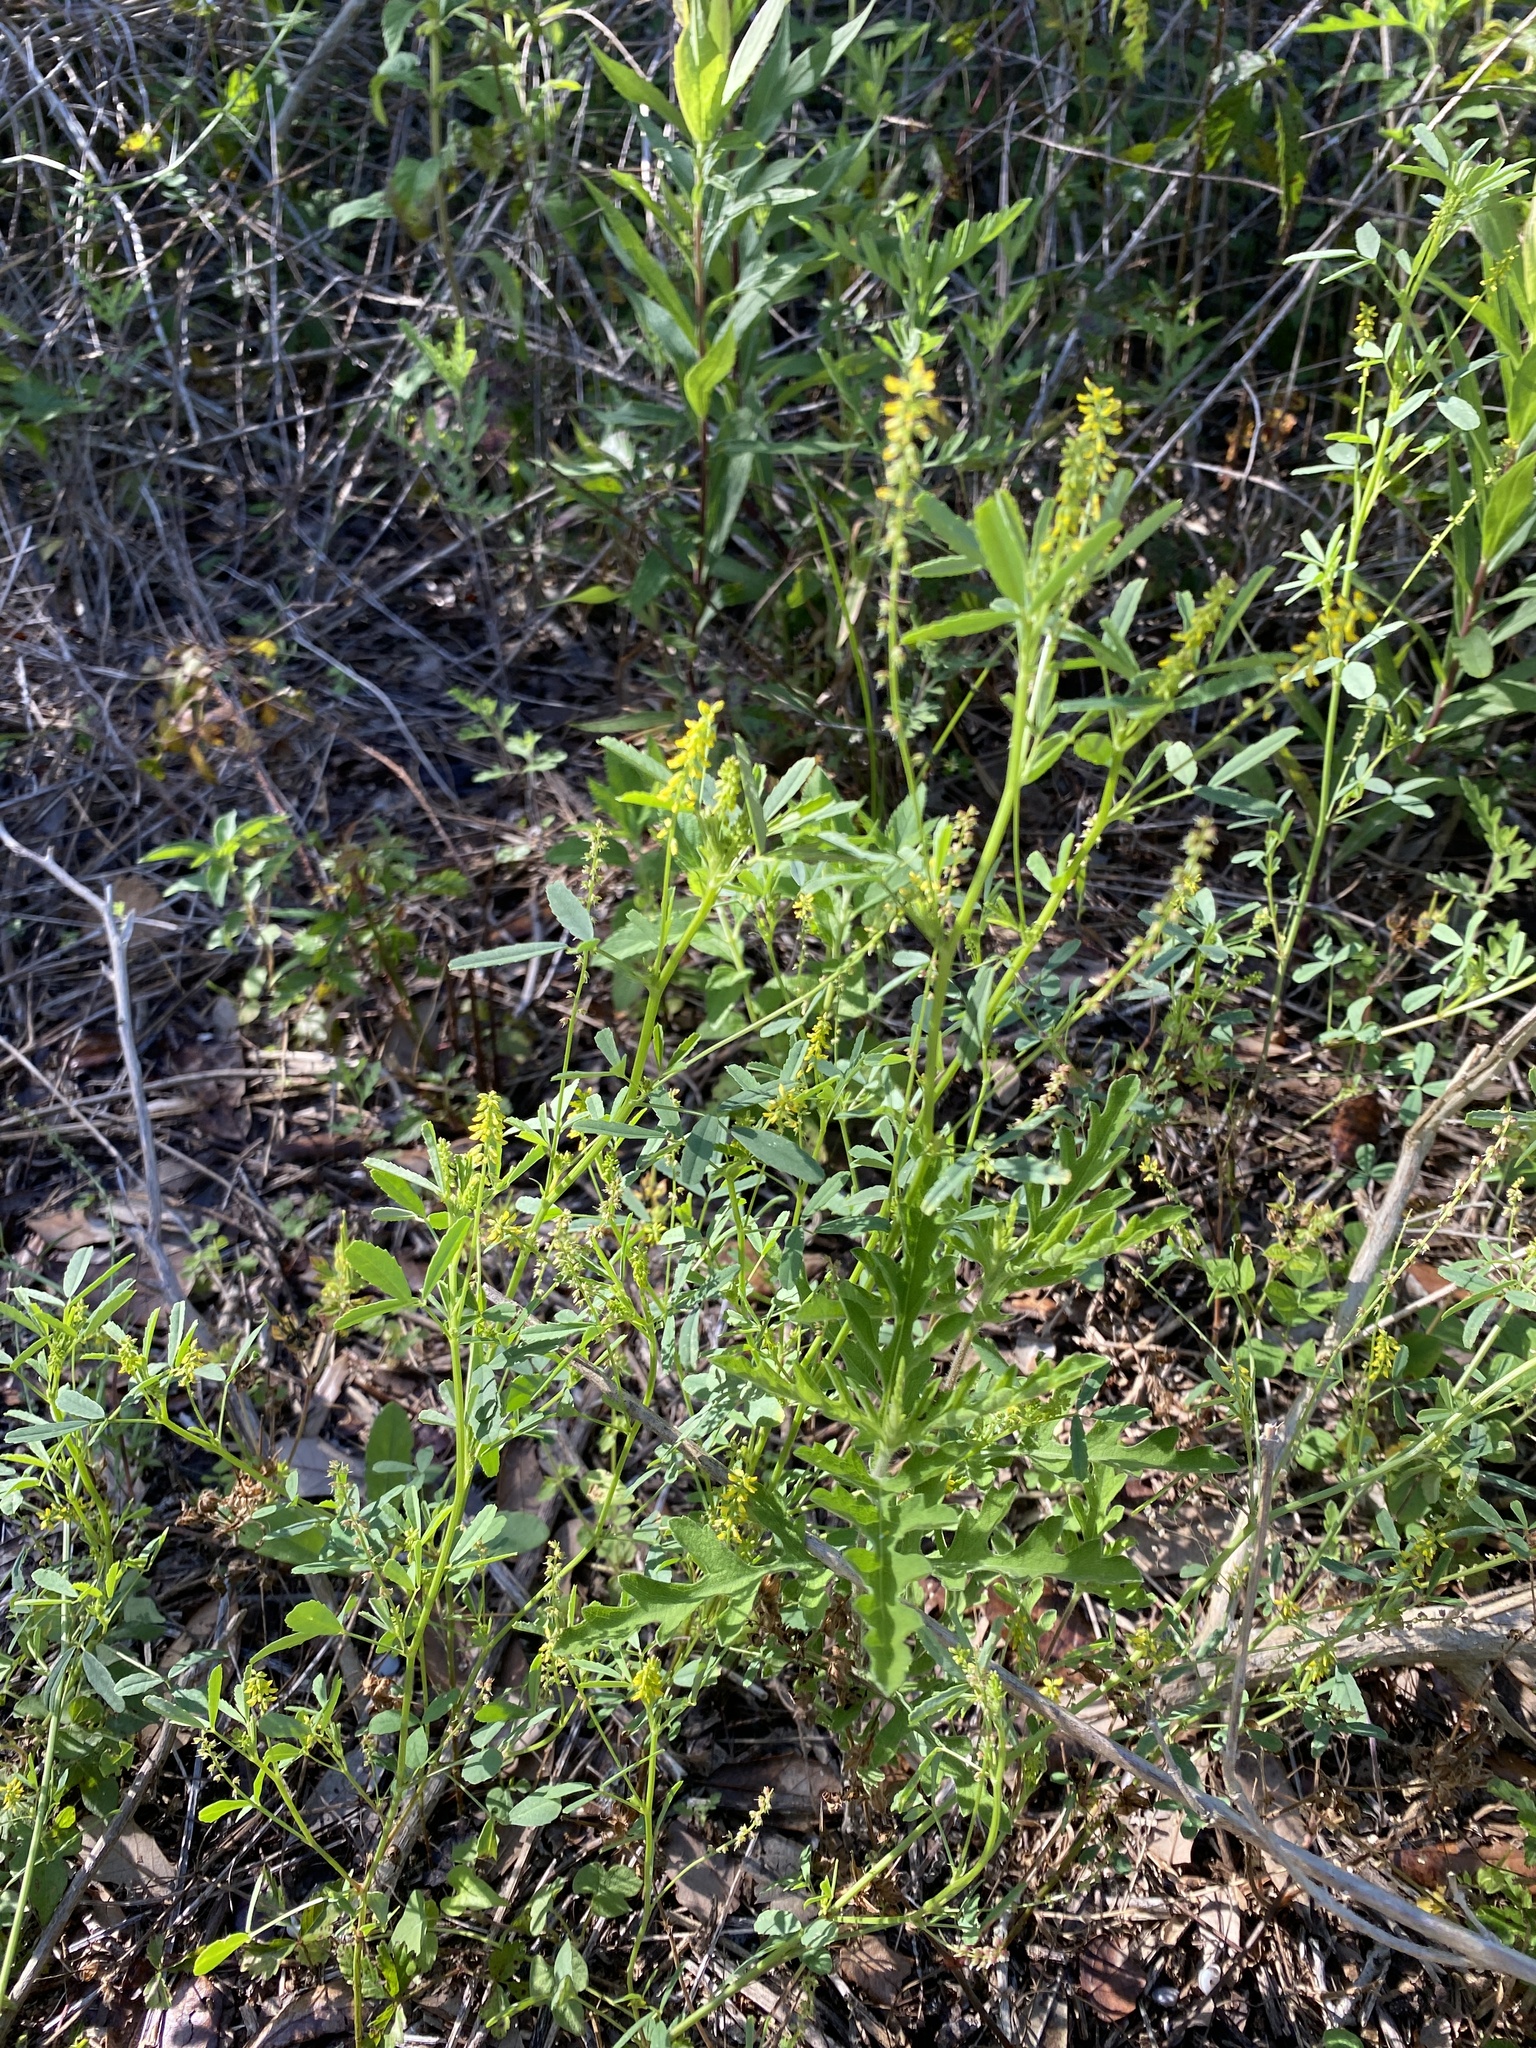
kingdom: Plantae
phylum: Tracheophyta
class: Magnoliopsida
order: Fabales
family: Fabaceae
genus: Melilotus
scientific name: Melilotus indicus
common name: Small melilot
